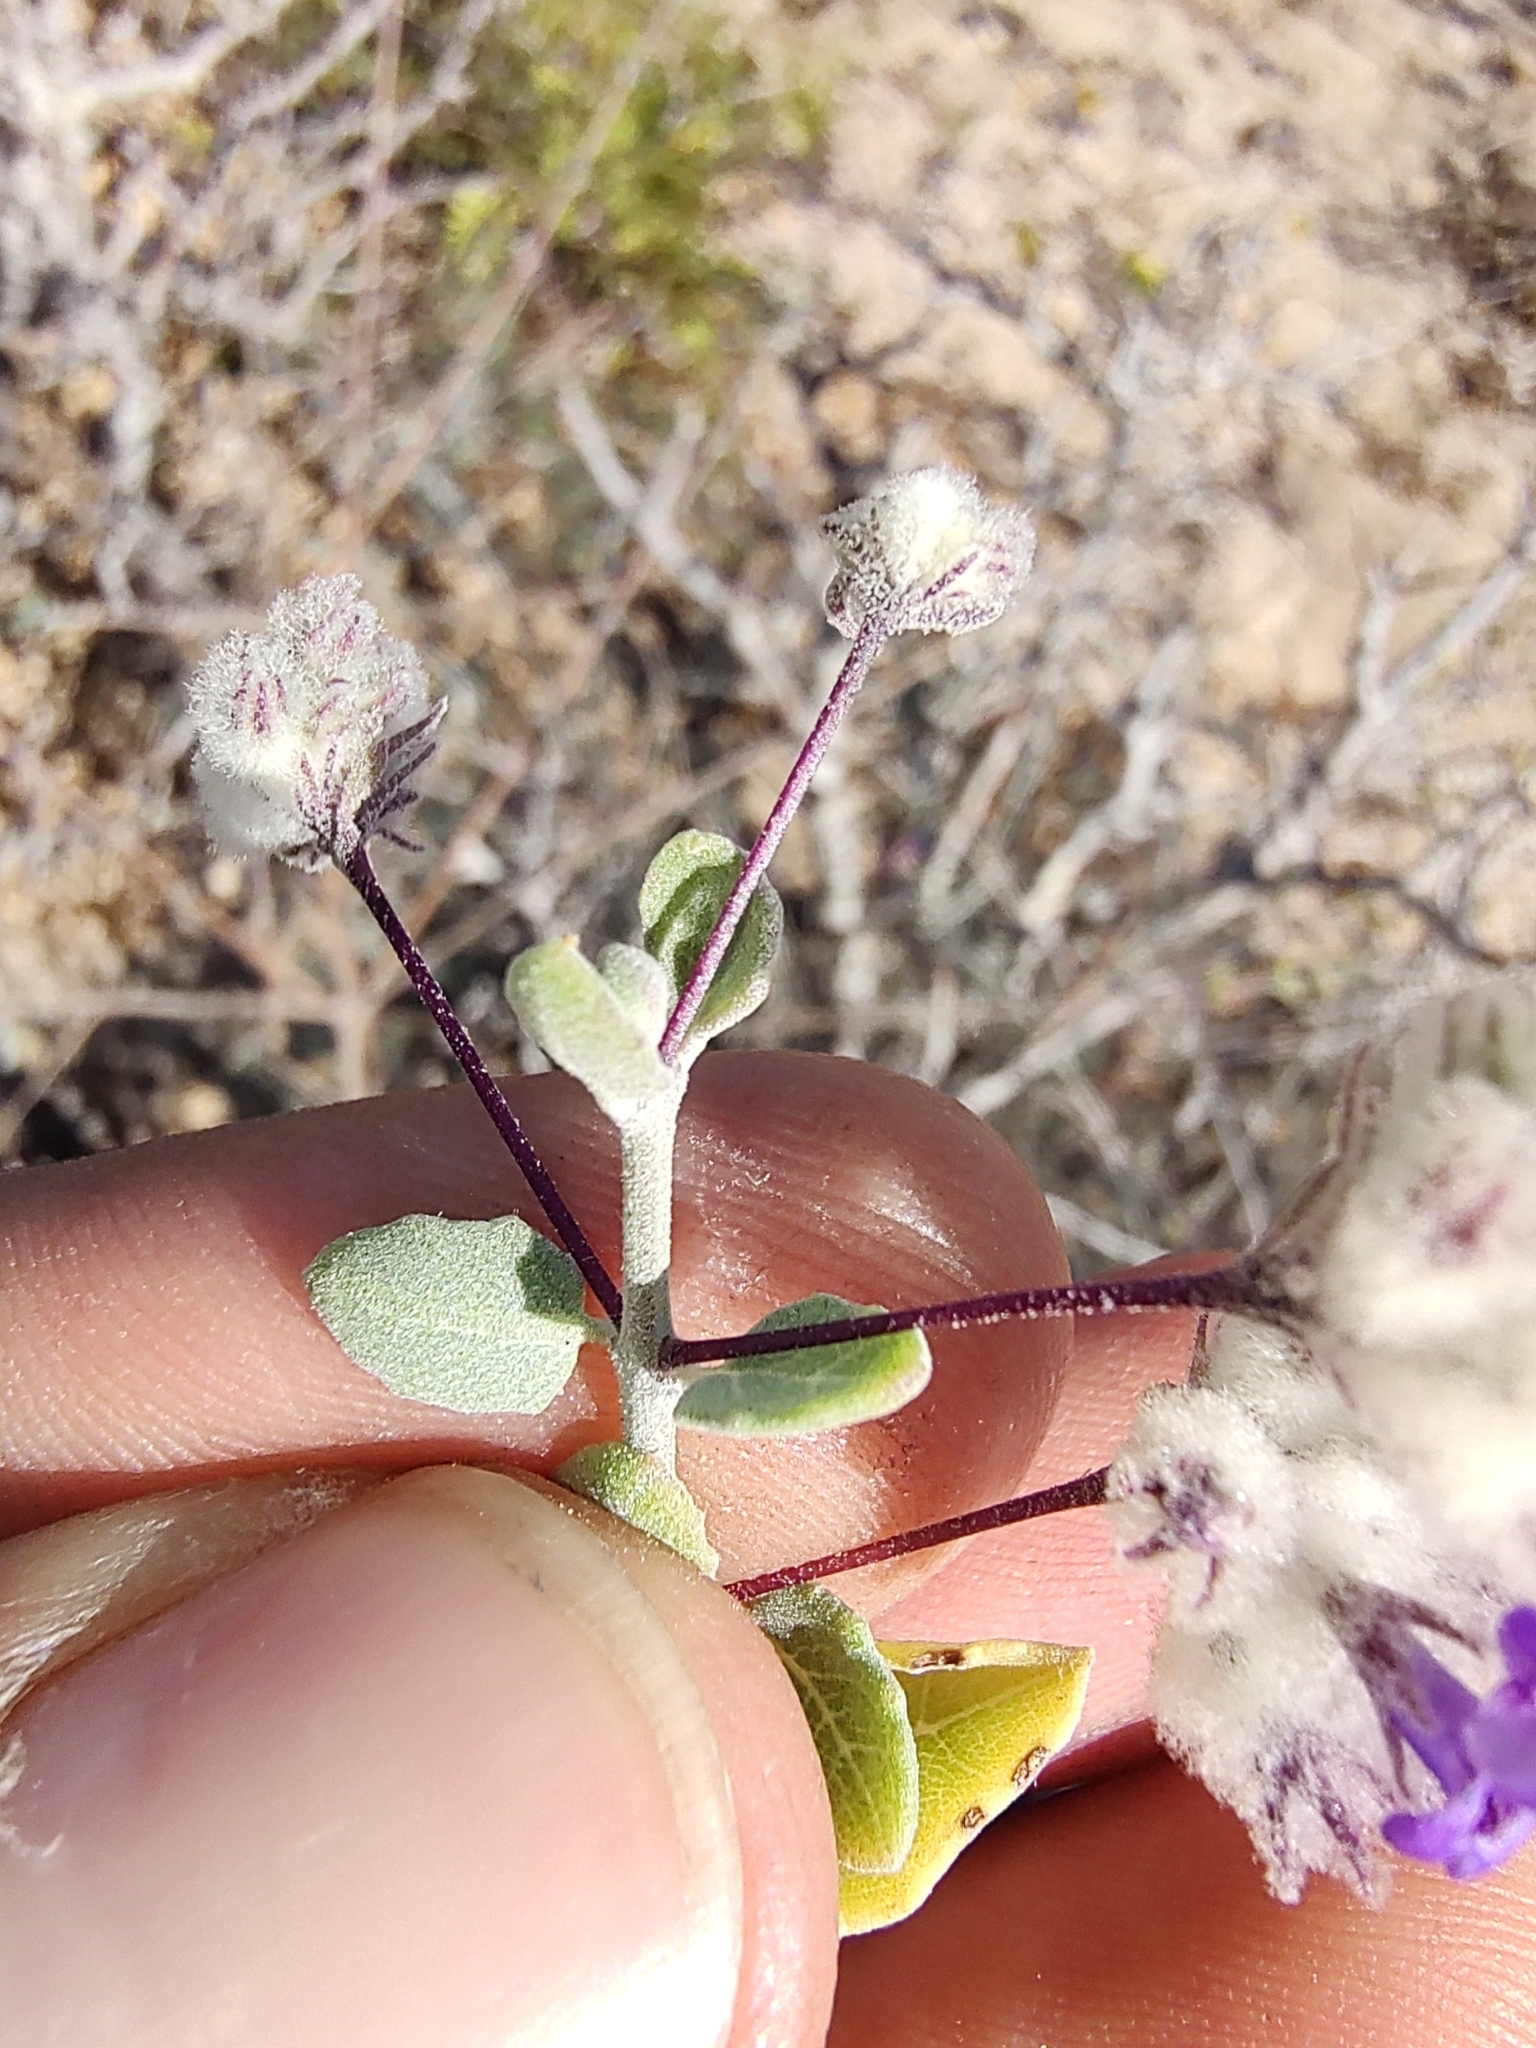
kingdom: Plantae
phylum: Tracheophyta
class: Magnoliopsida
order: Lamiales
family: Lamiaceae
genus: Condea
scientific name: Condea laniflora
